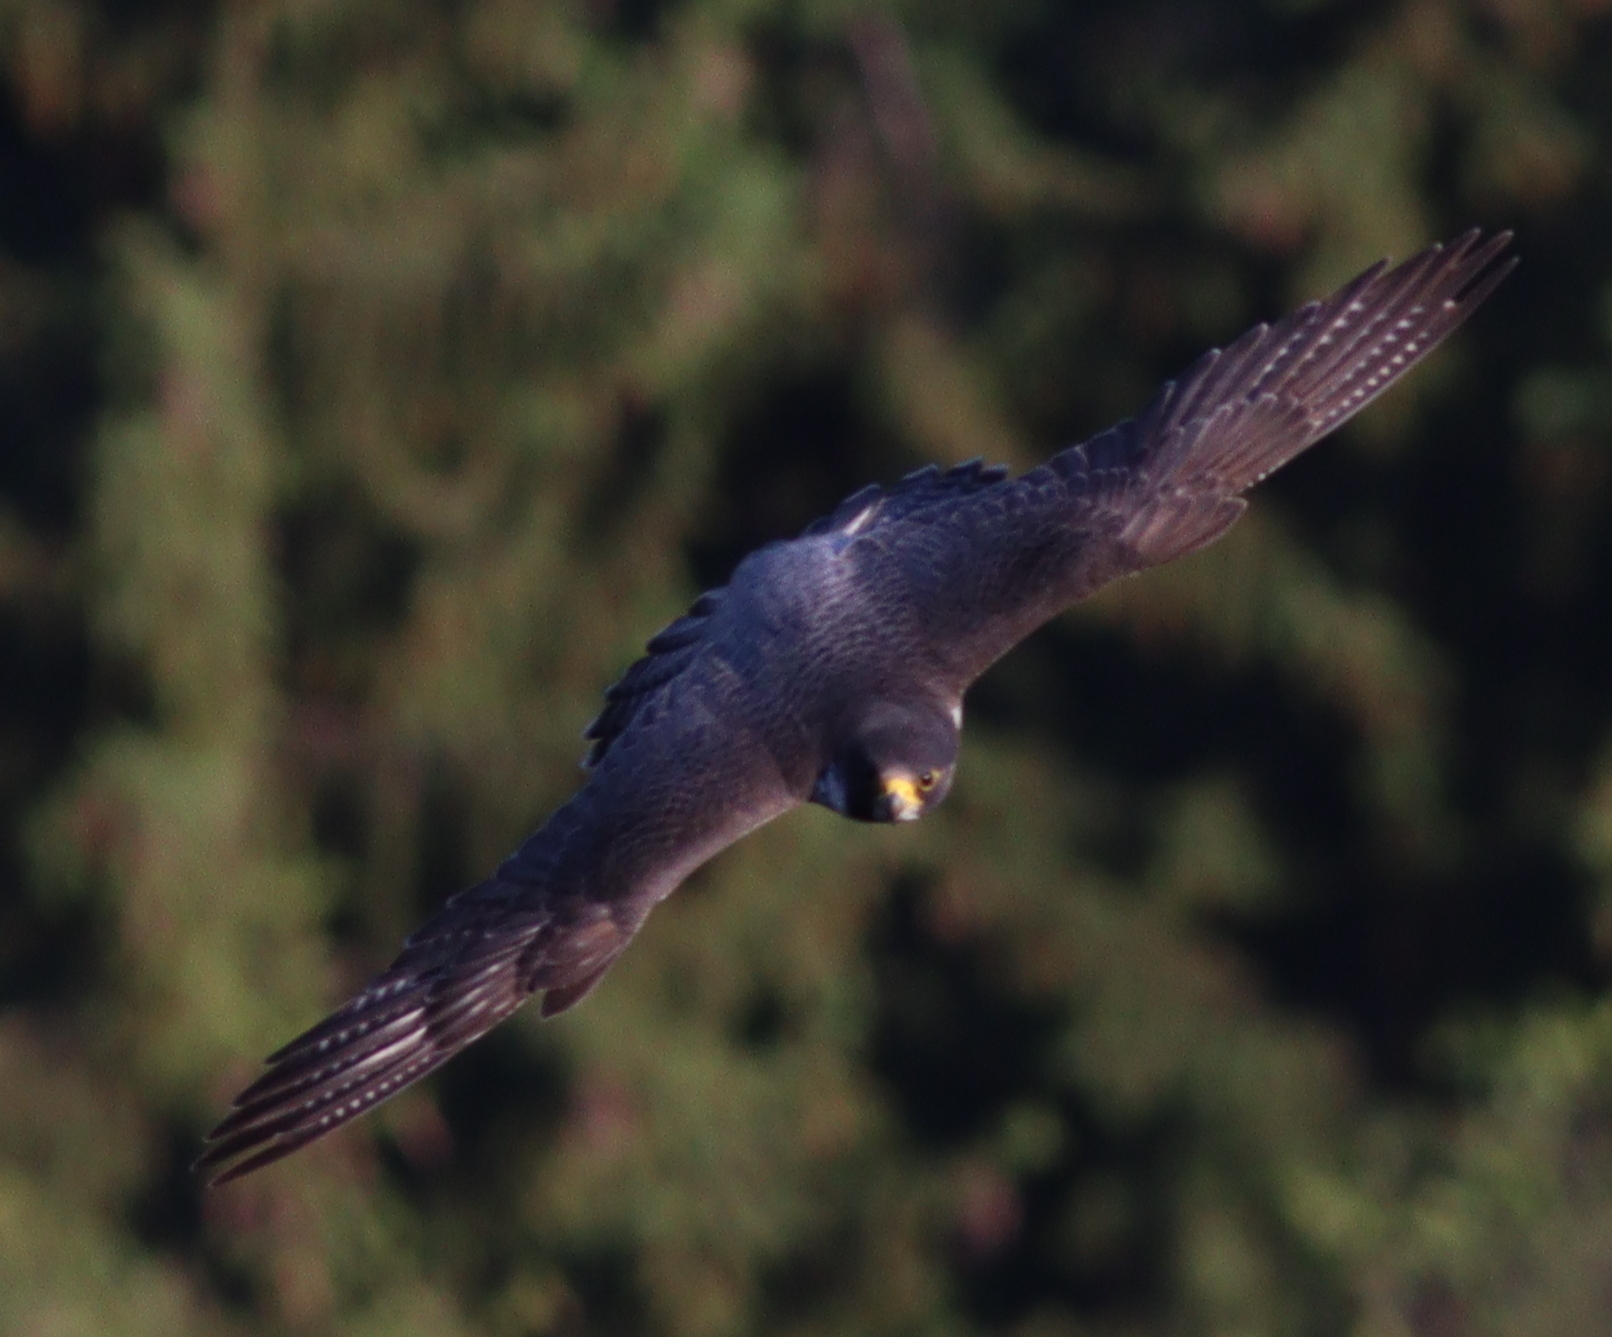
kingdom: Animalia
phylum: Chordata
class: Aves
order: Falconiformes
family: Falconidae
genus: Falco
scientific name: Falco peregrinus
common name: Peregrine falcon
